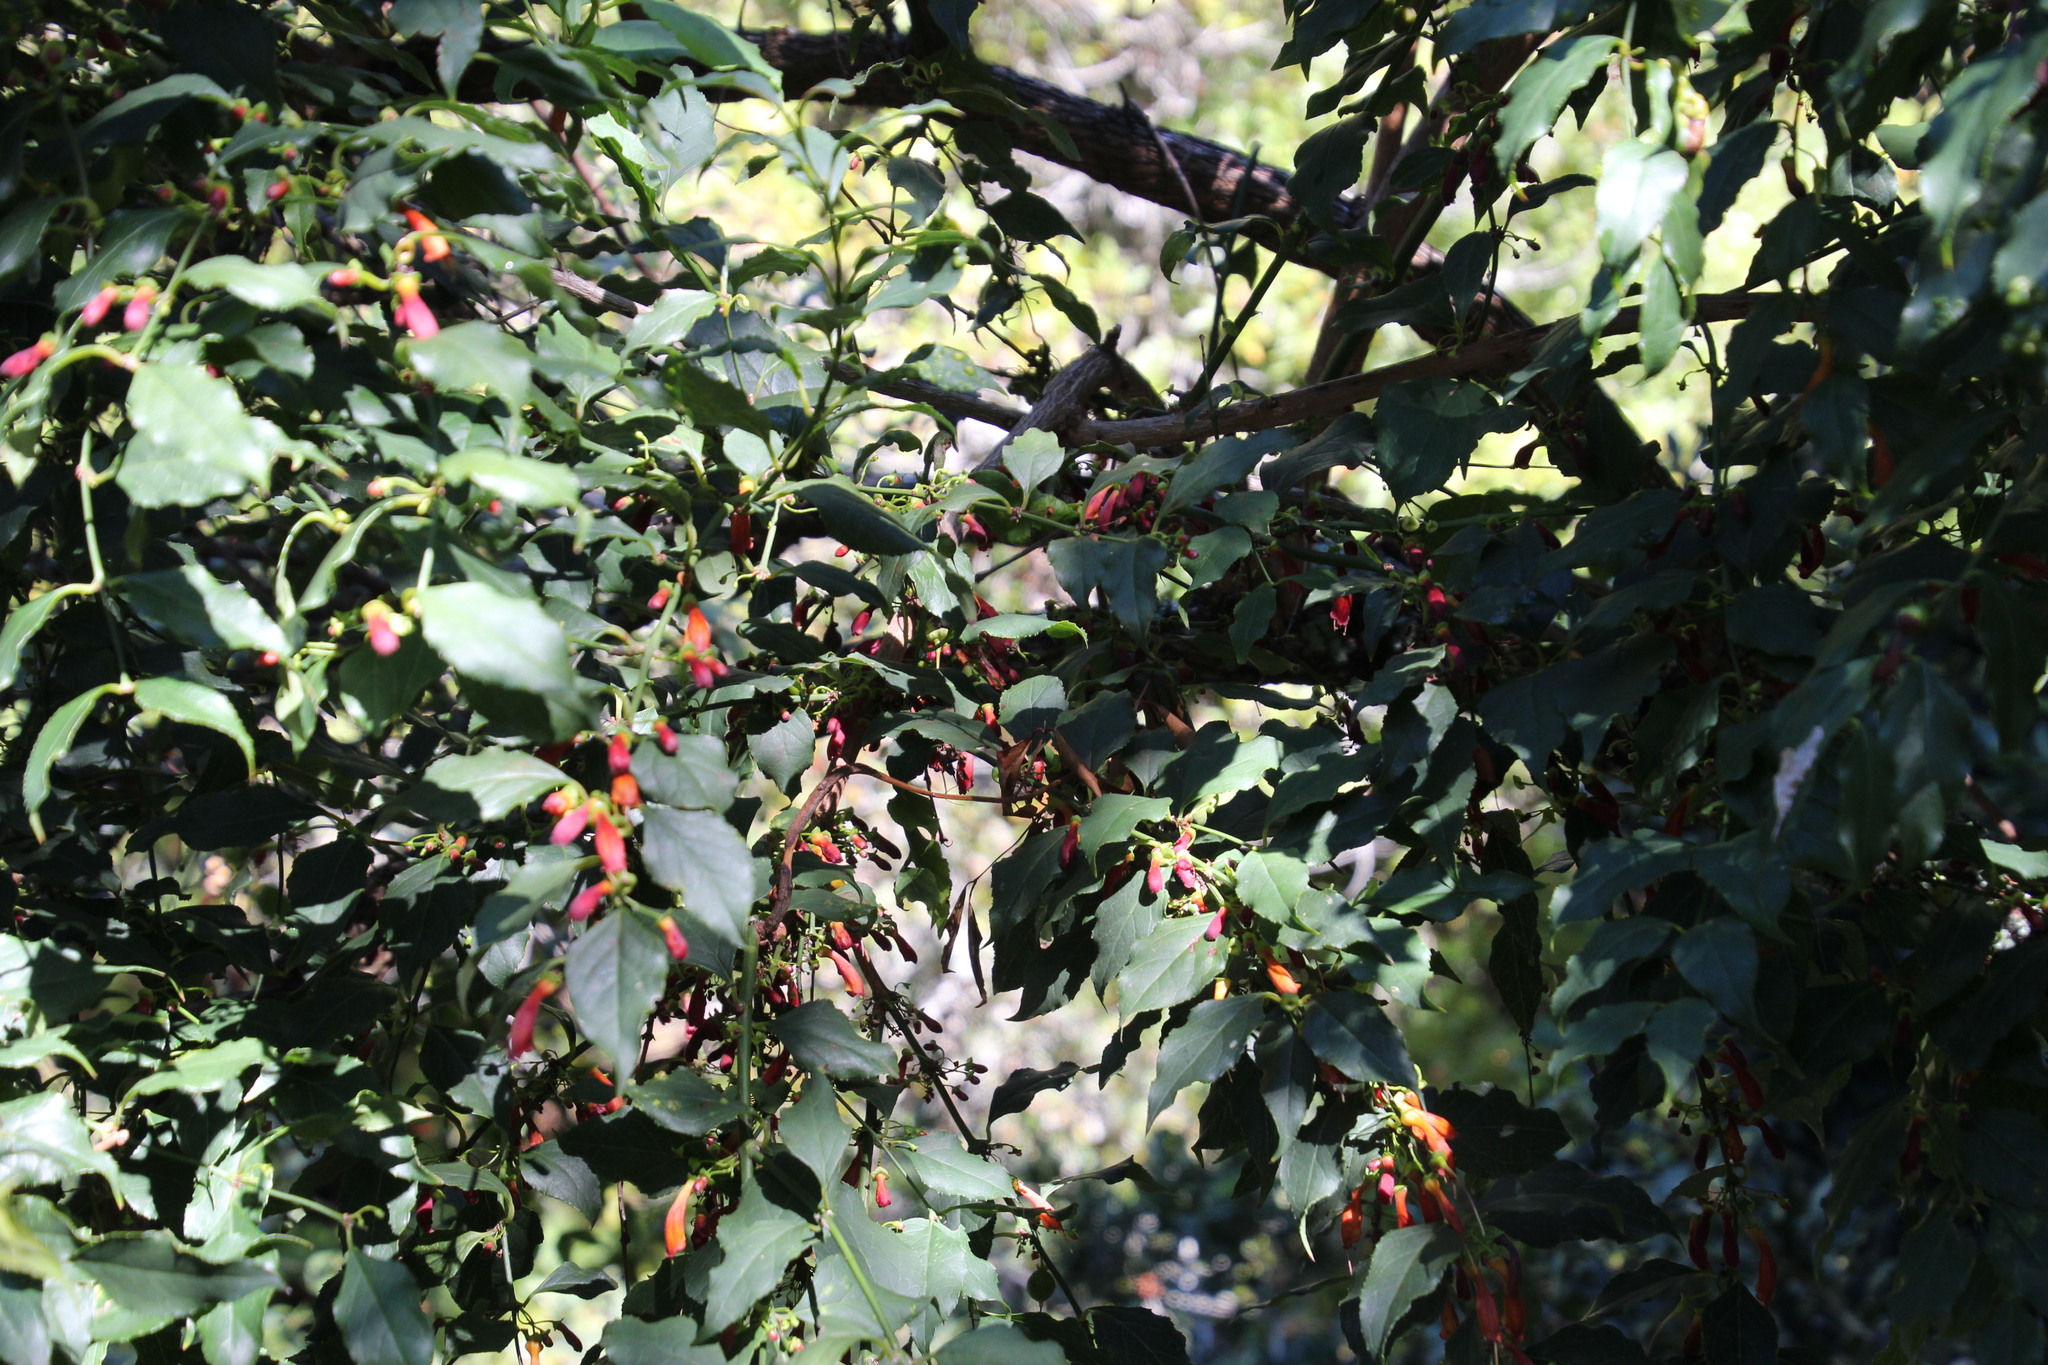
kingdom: Plantae
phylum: Tracheophyta
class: Magnoliopsida
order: Lamiales
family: Stilbaceae
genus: Halleria
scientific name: Halleria lucida
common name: Tree fuschia
